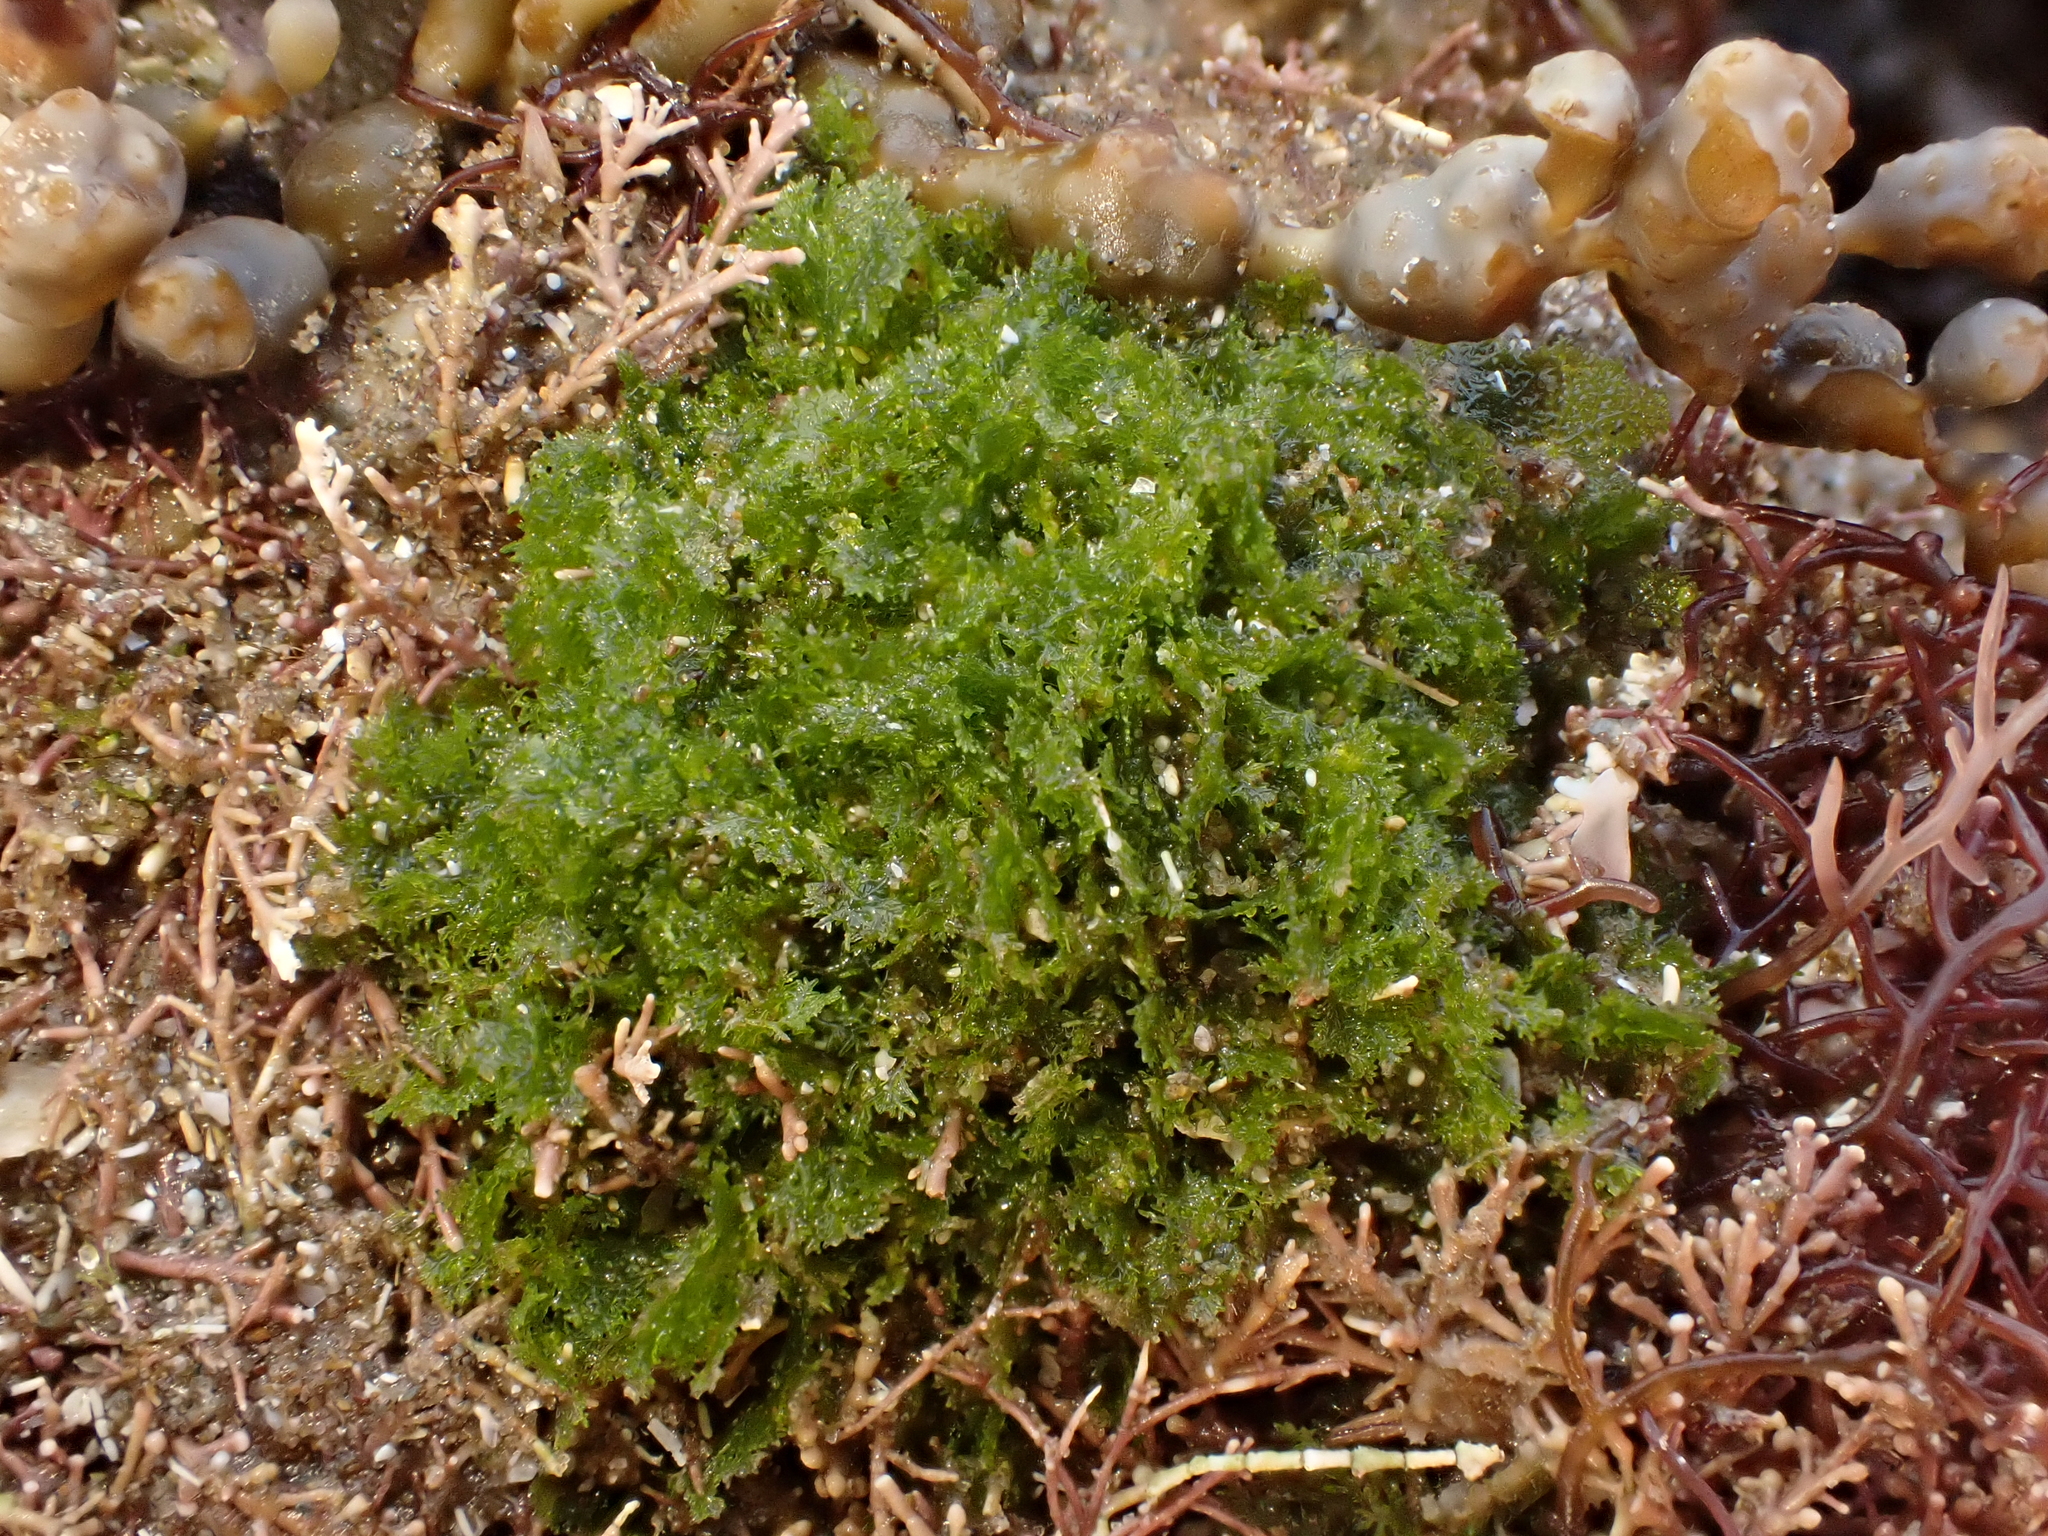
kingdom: Plantae
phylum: Chlorophyta
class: Ulvophyceae
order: Cladophorales
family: Anadyomenaceae
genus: Microdictyon
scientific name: Microdictyon mutabile
